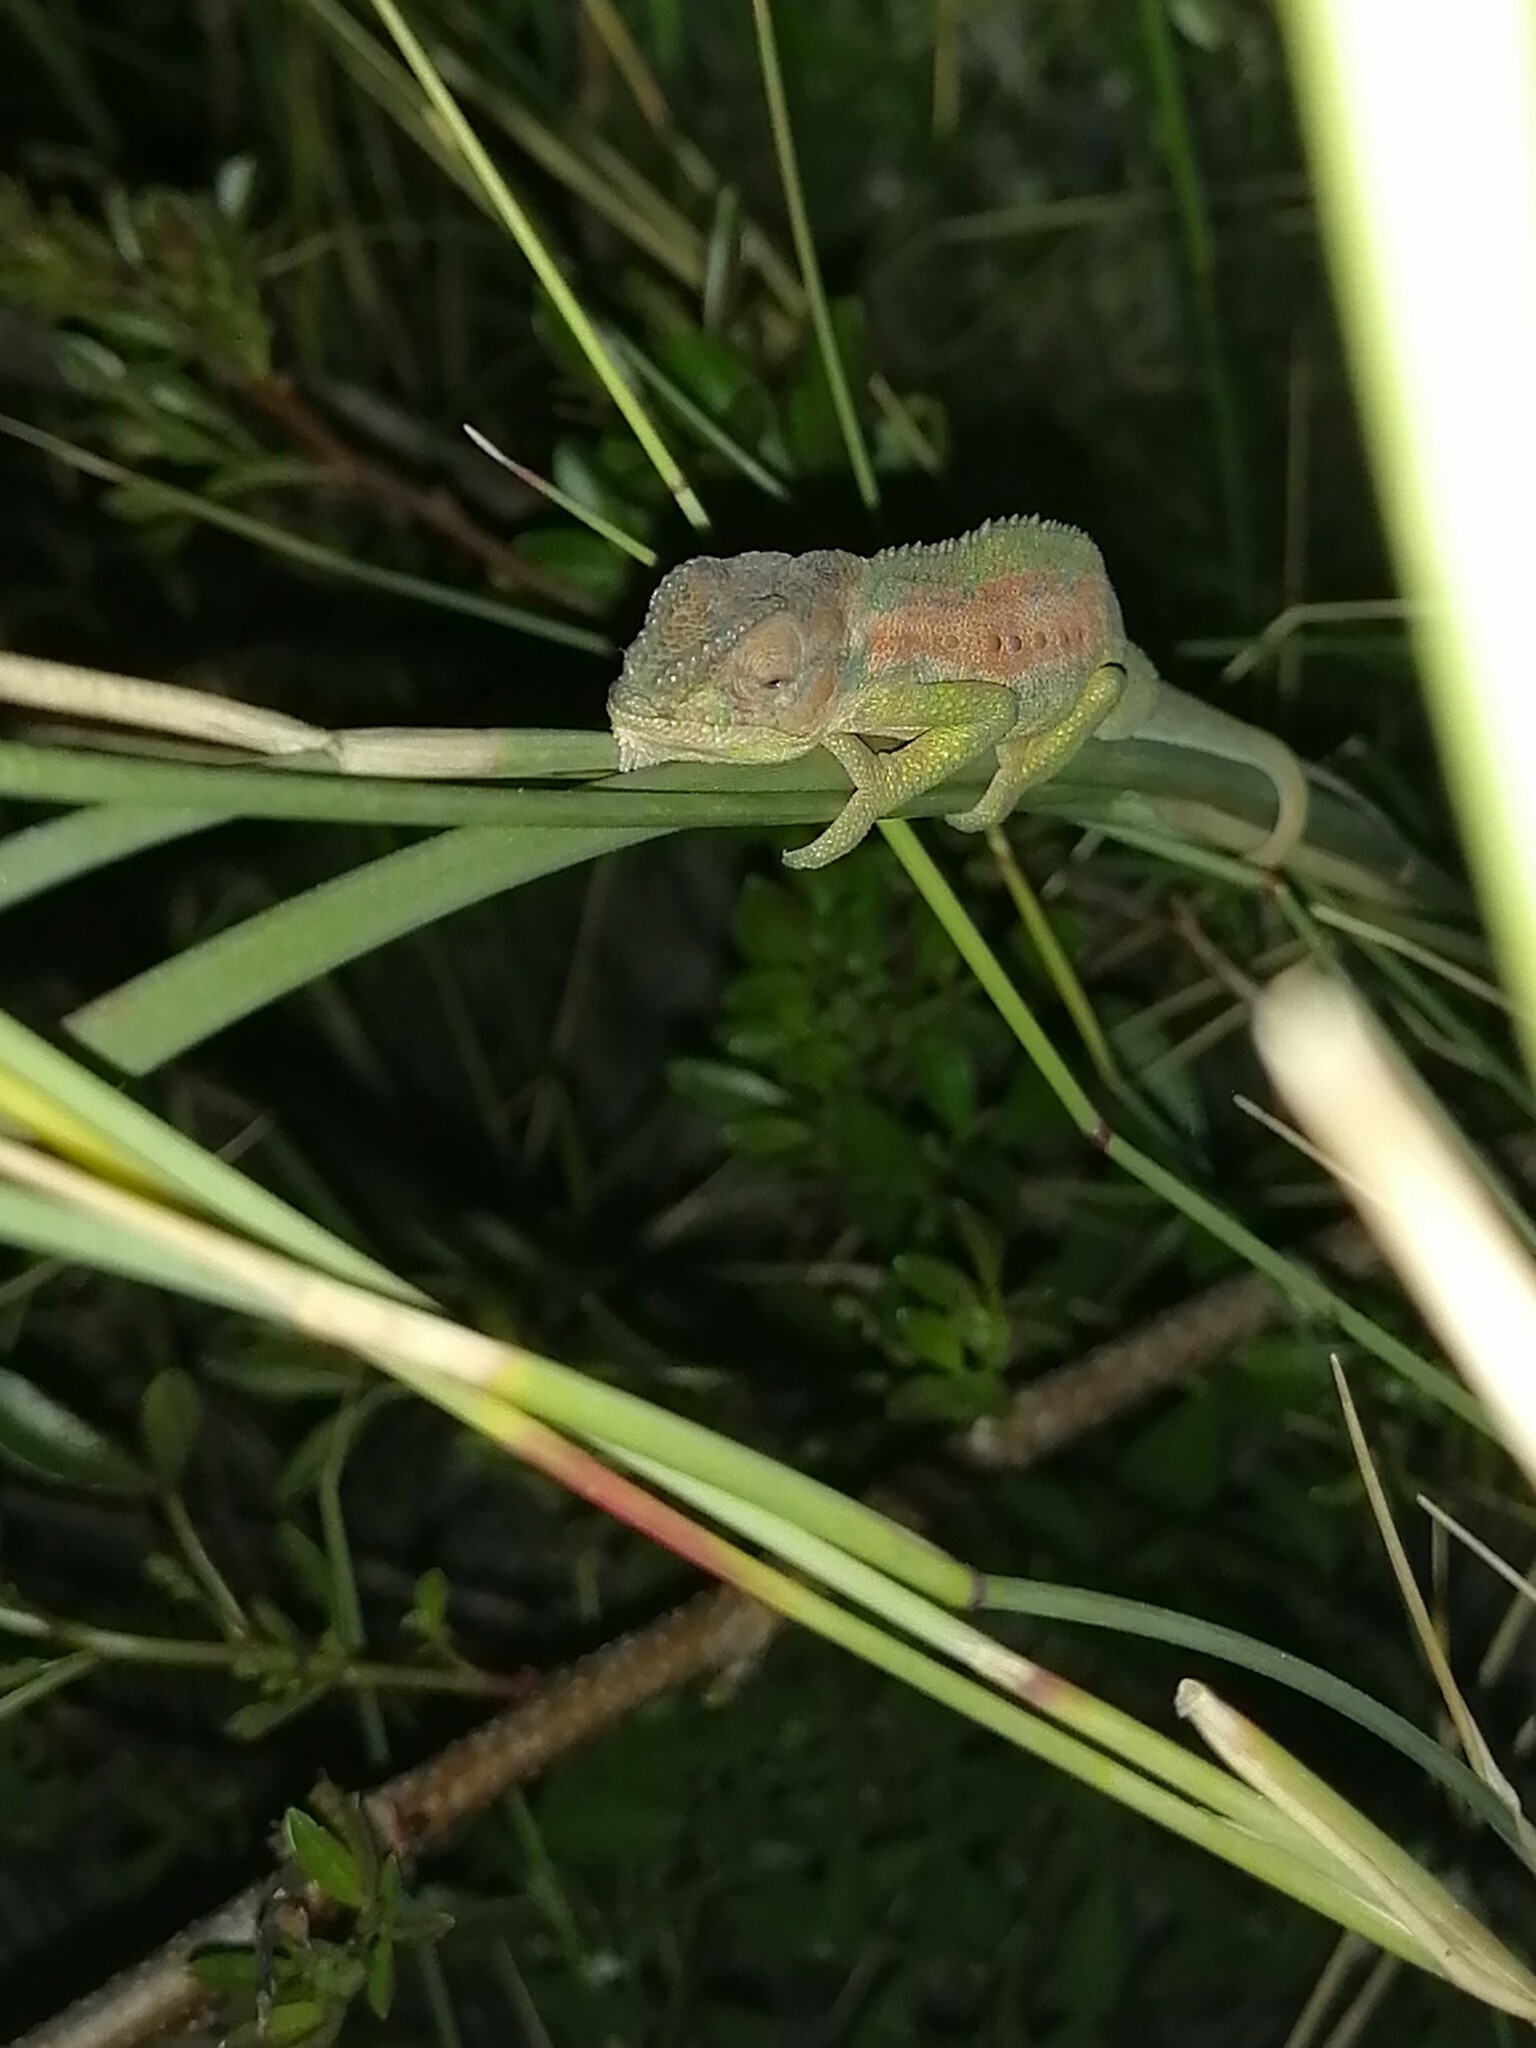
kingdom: Animalia
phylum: Chordata
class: Squamata
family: Chamaeleonidae
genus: Bradypodion
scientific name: Bradypodion pumilum
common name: Cape dwarf chameleon
